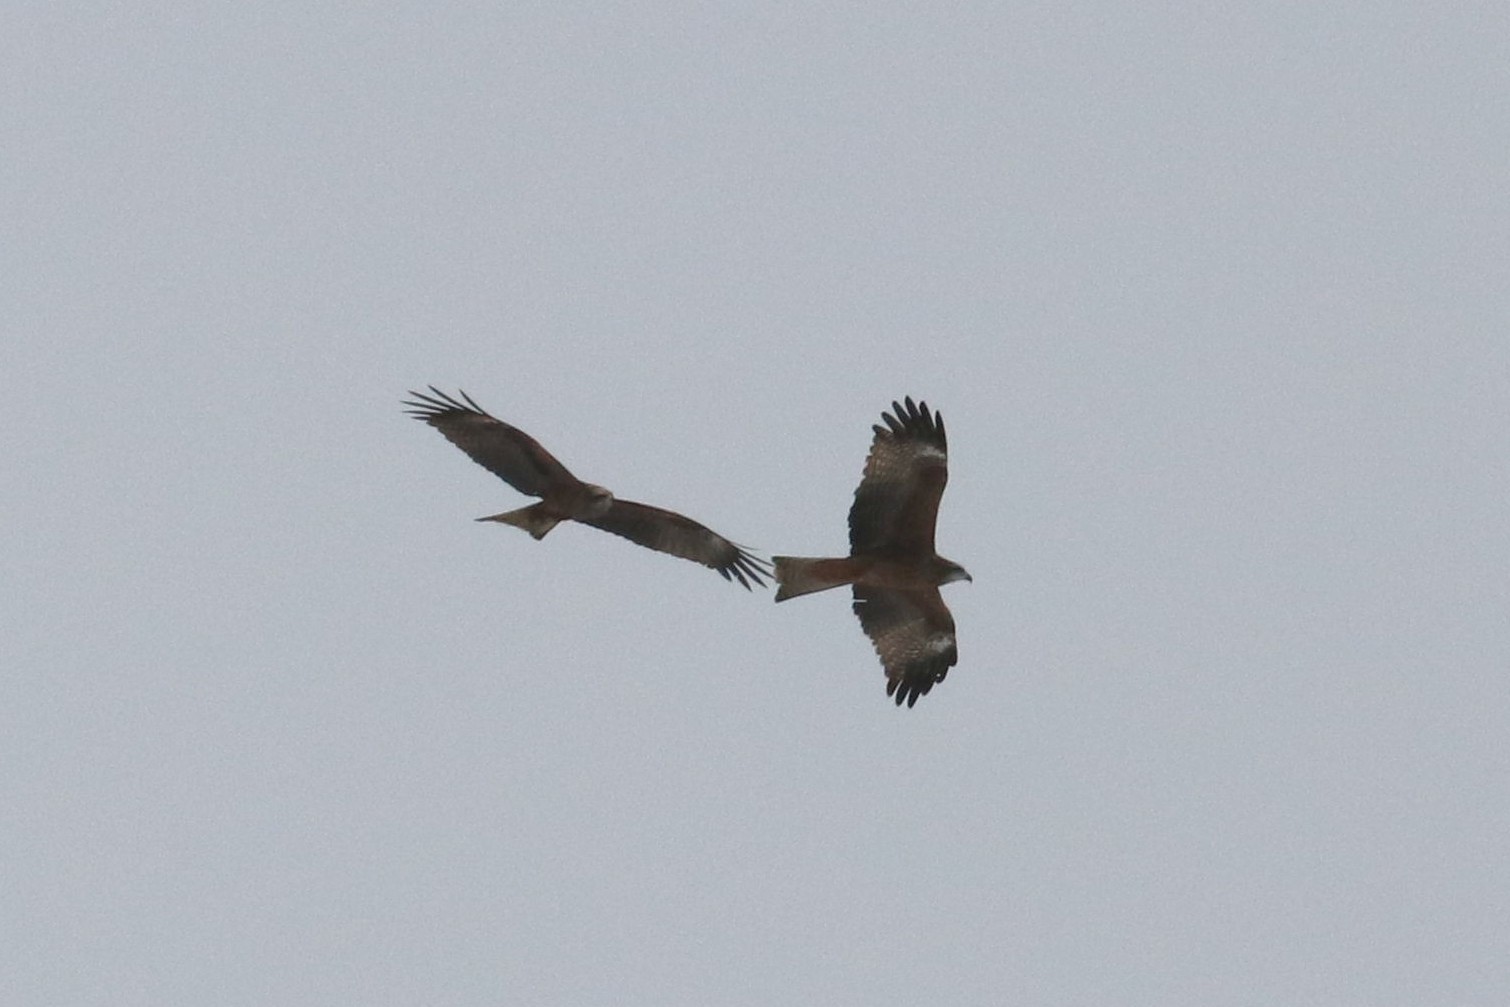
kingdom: Animalia
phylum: Chordata
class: Aves
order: Accipitriformes
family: Accipitridae
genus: Milvus
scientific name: Milvus migrans
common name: Black kite
